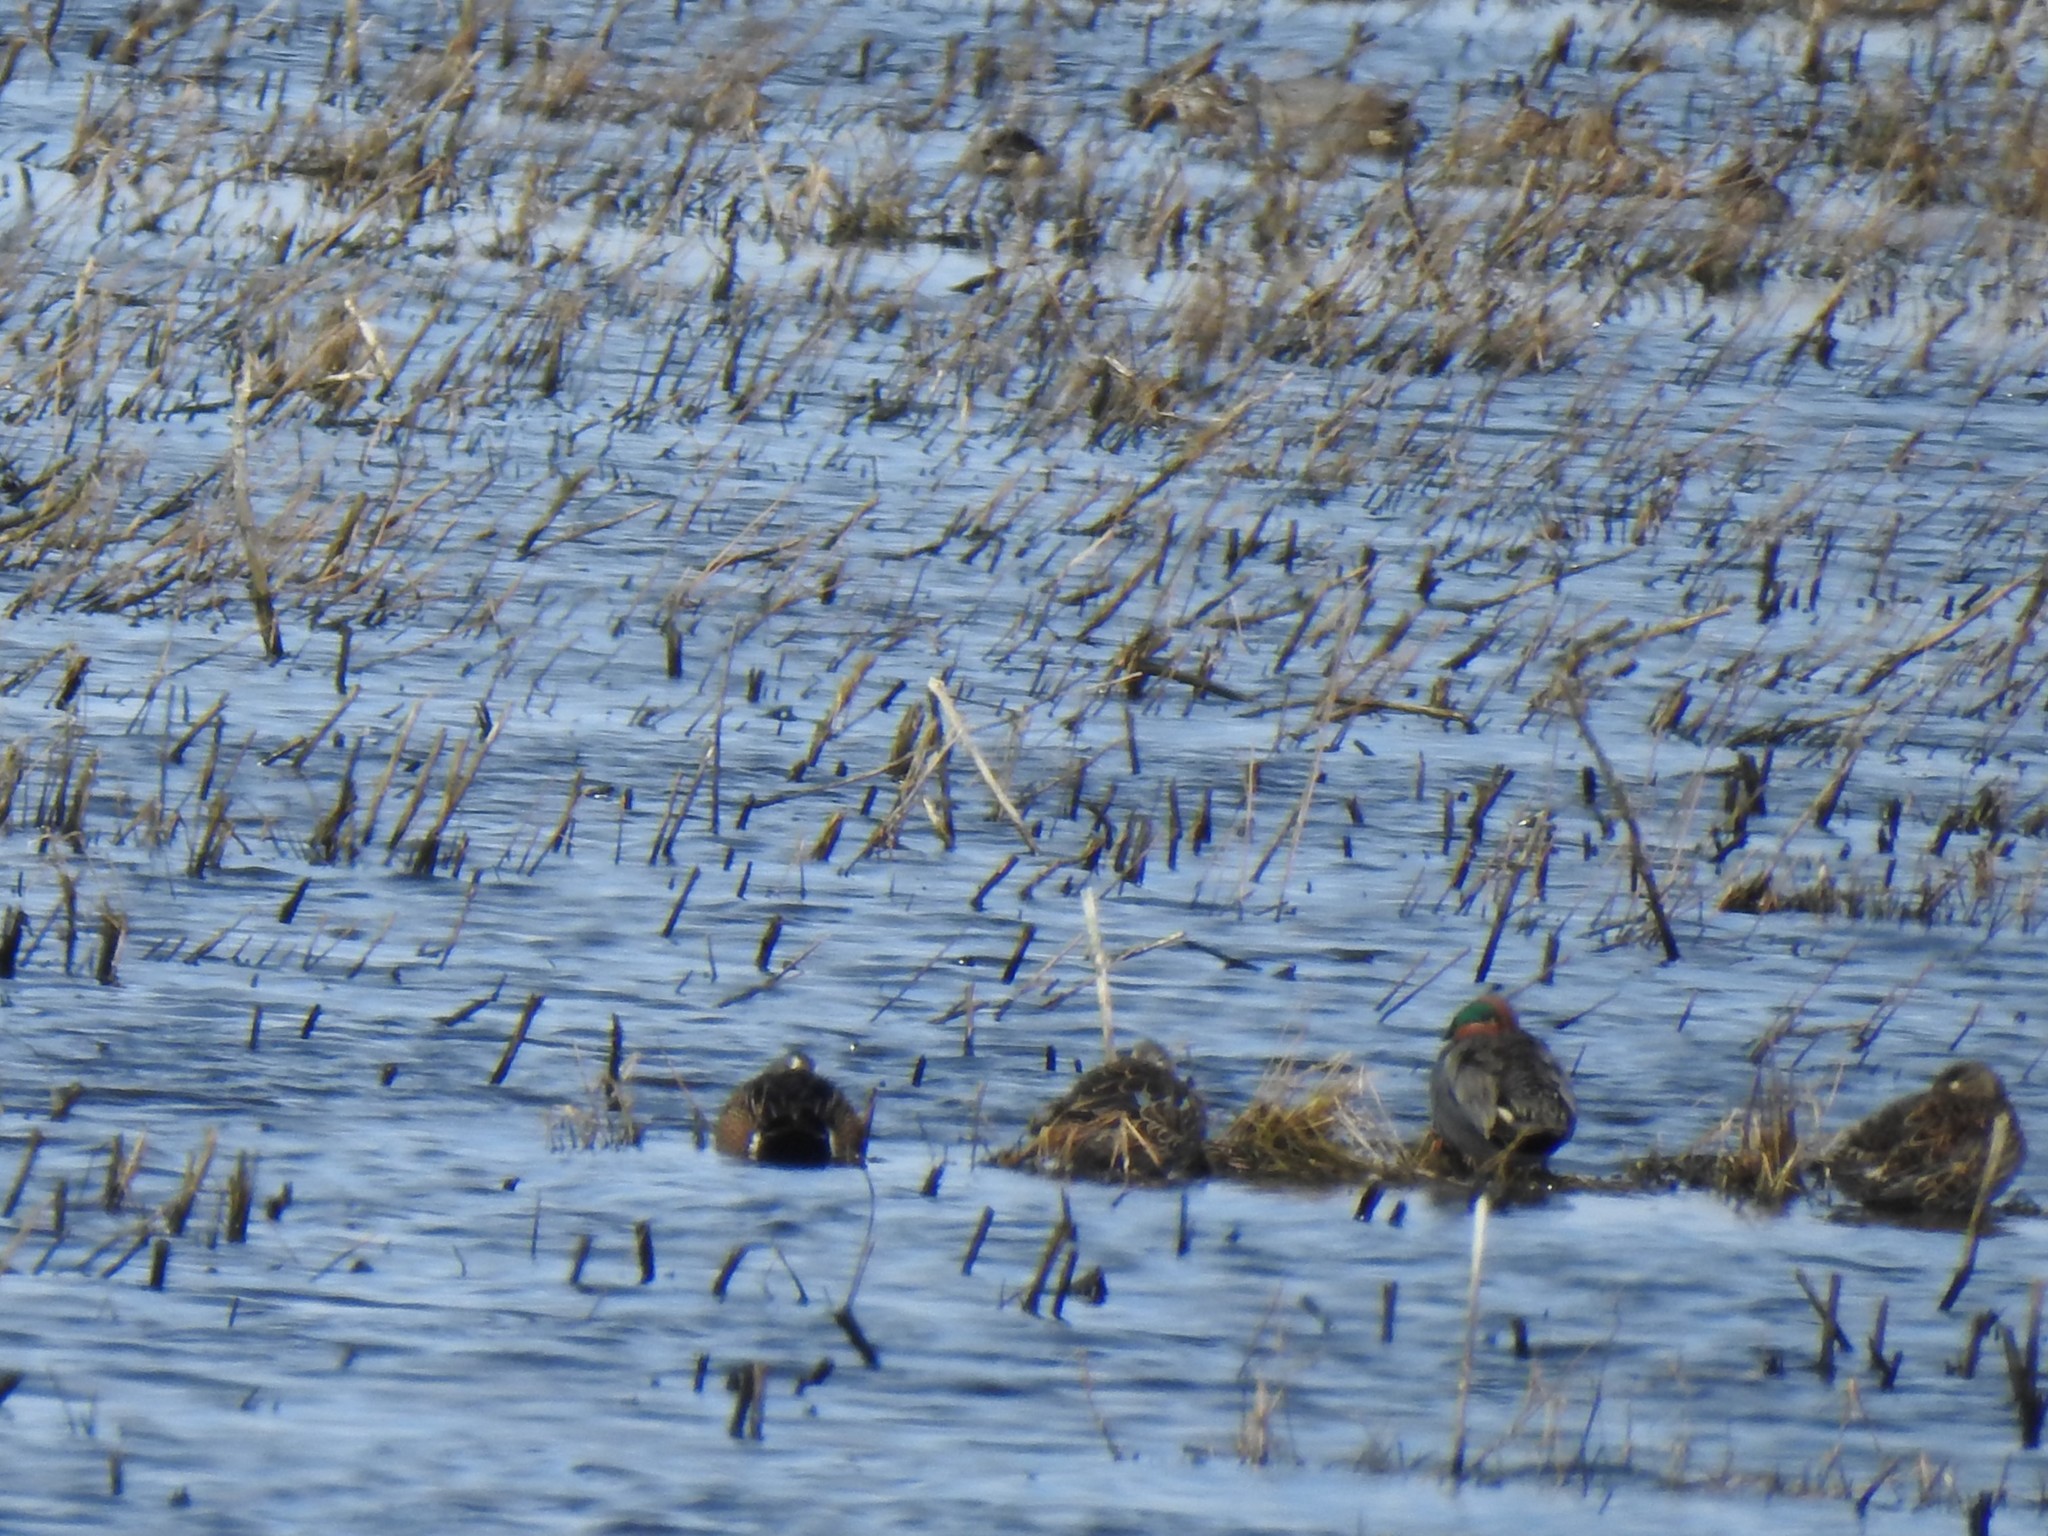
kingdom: Animalia
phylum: Chordata
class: Aves
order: Anseriformes
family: Anatidae
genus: Anas
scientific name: Anas crecca
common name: Eurasian teal
